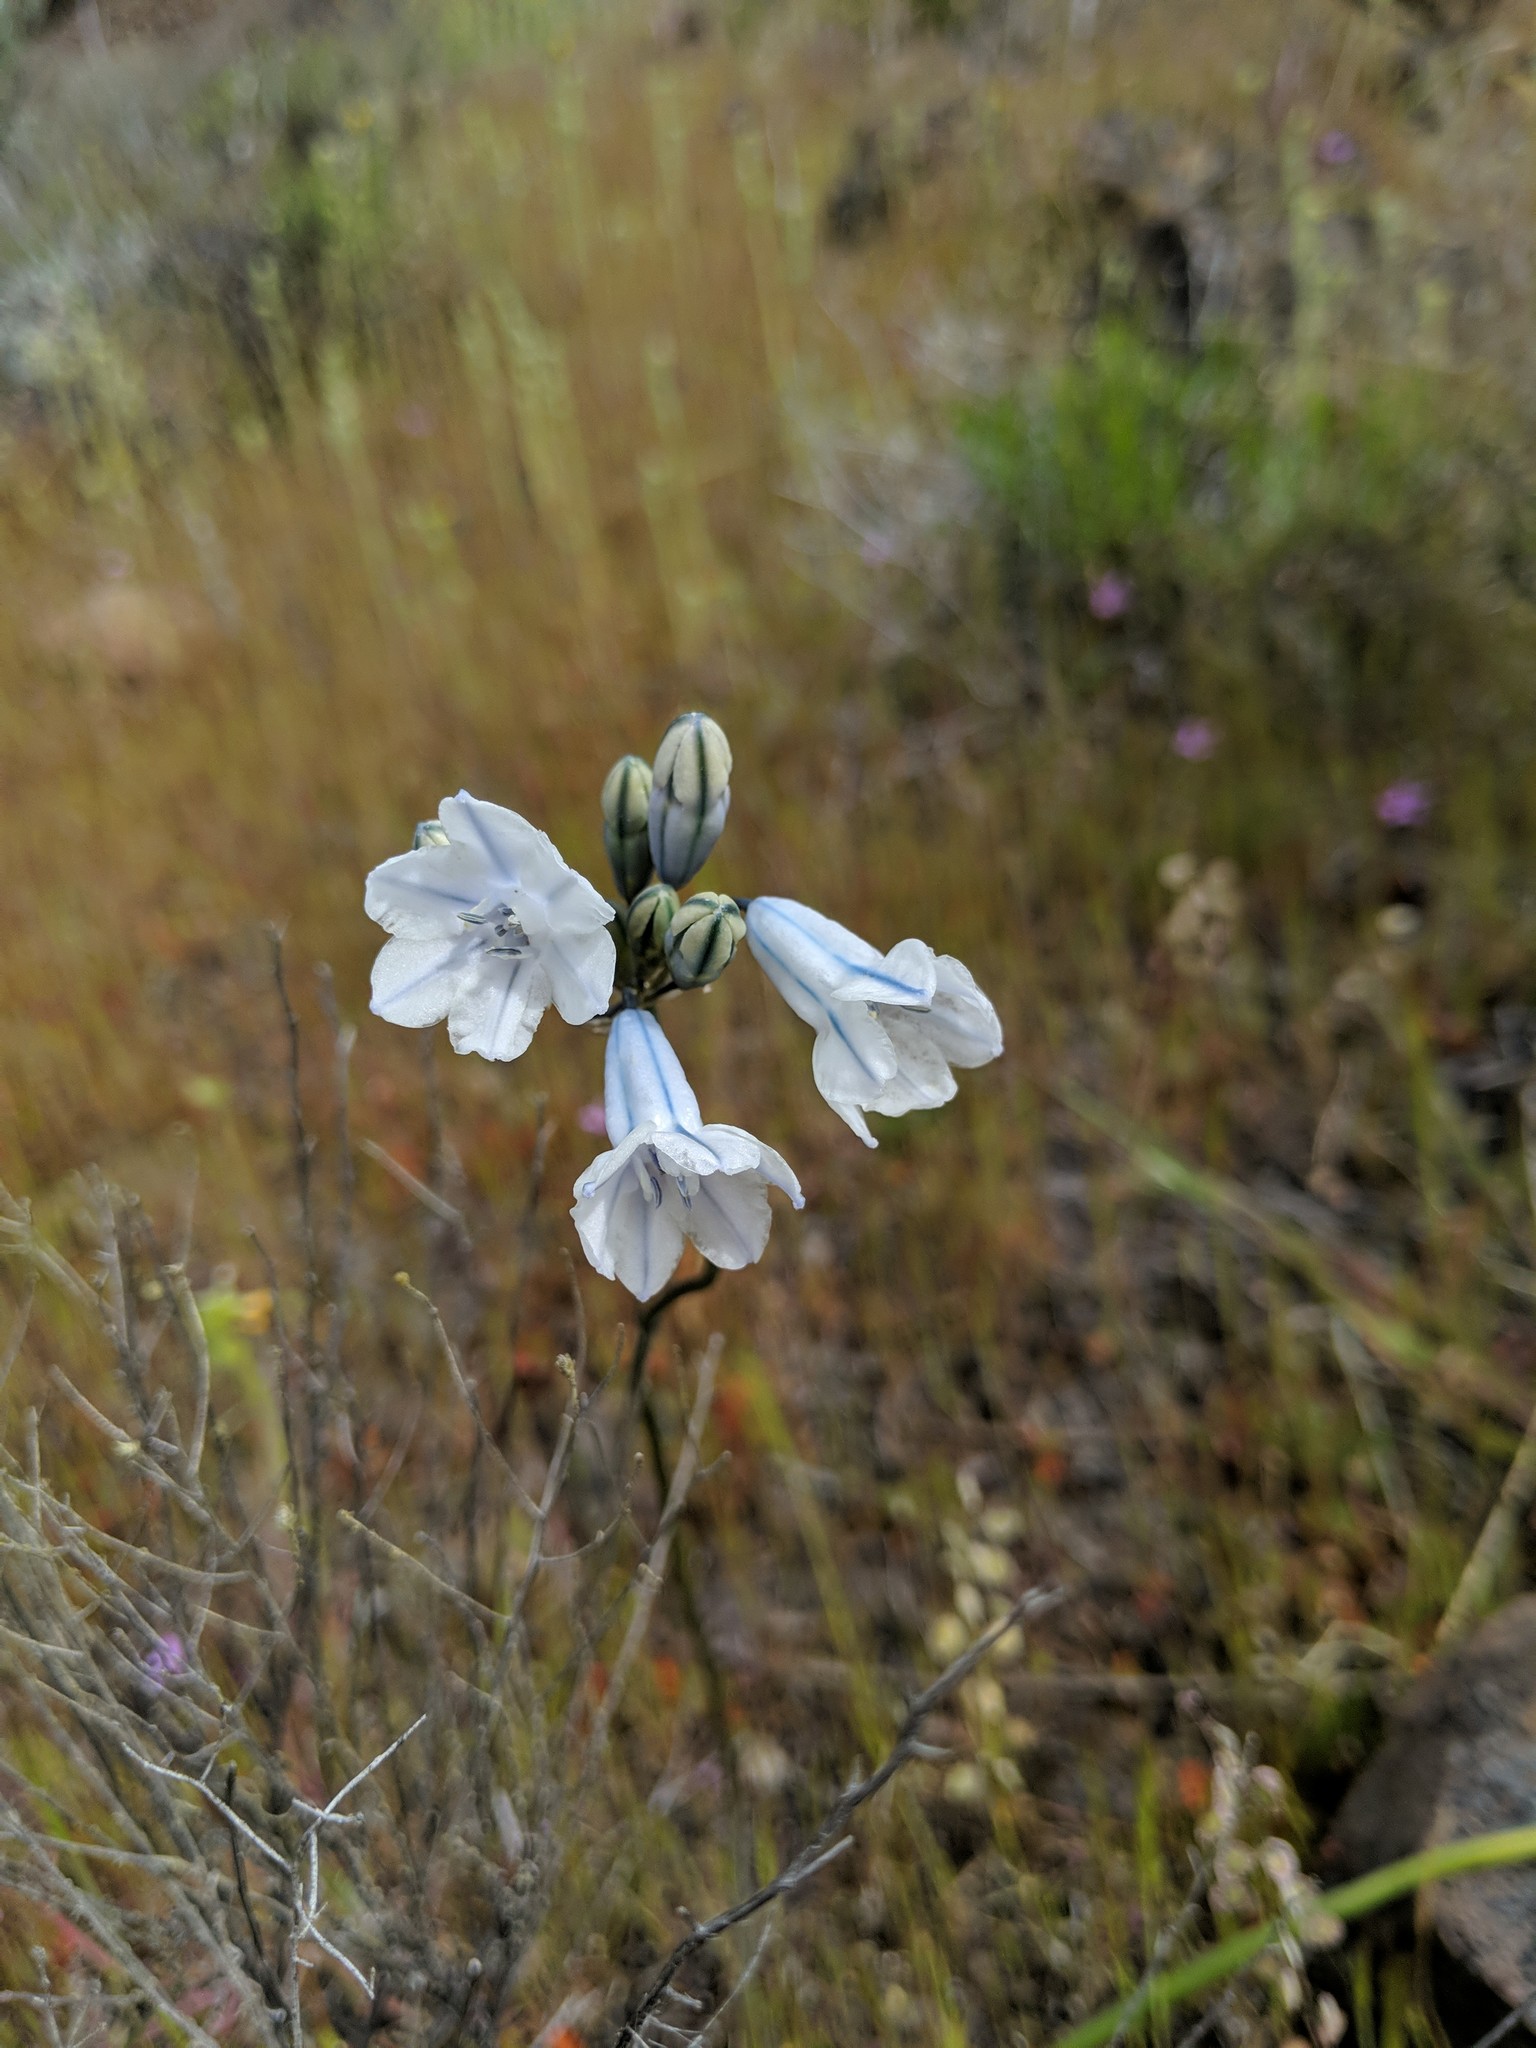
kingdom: Plantae
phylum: Tracheophyta
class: Liliopsida
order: Asparagales
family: Asparagaceae
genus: Triteleia
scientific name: Triteleia grandiflora
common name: Wild hyacinth
